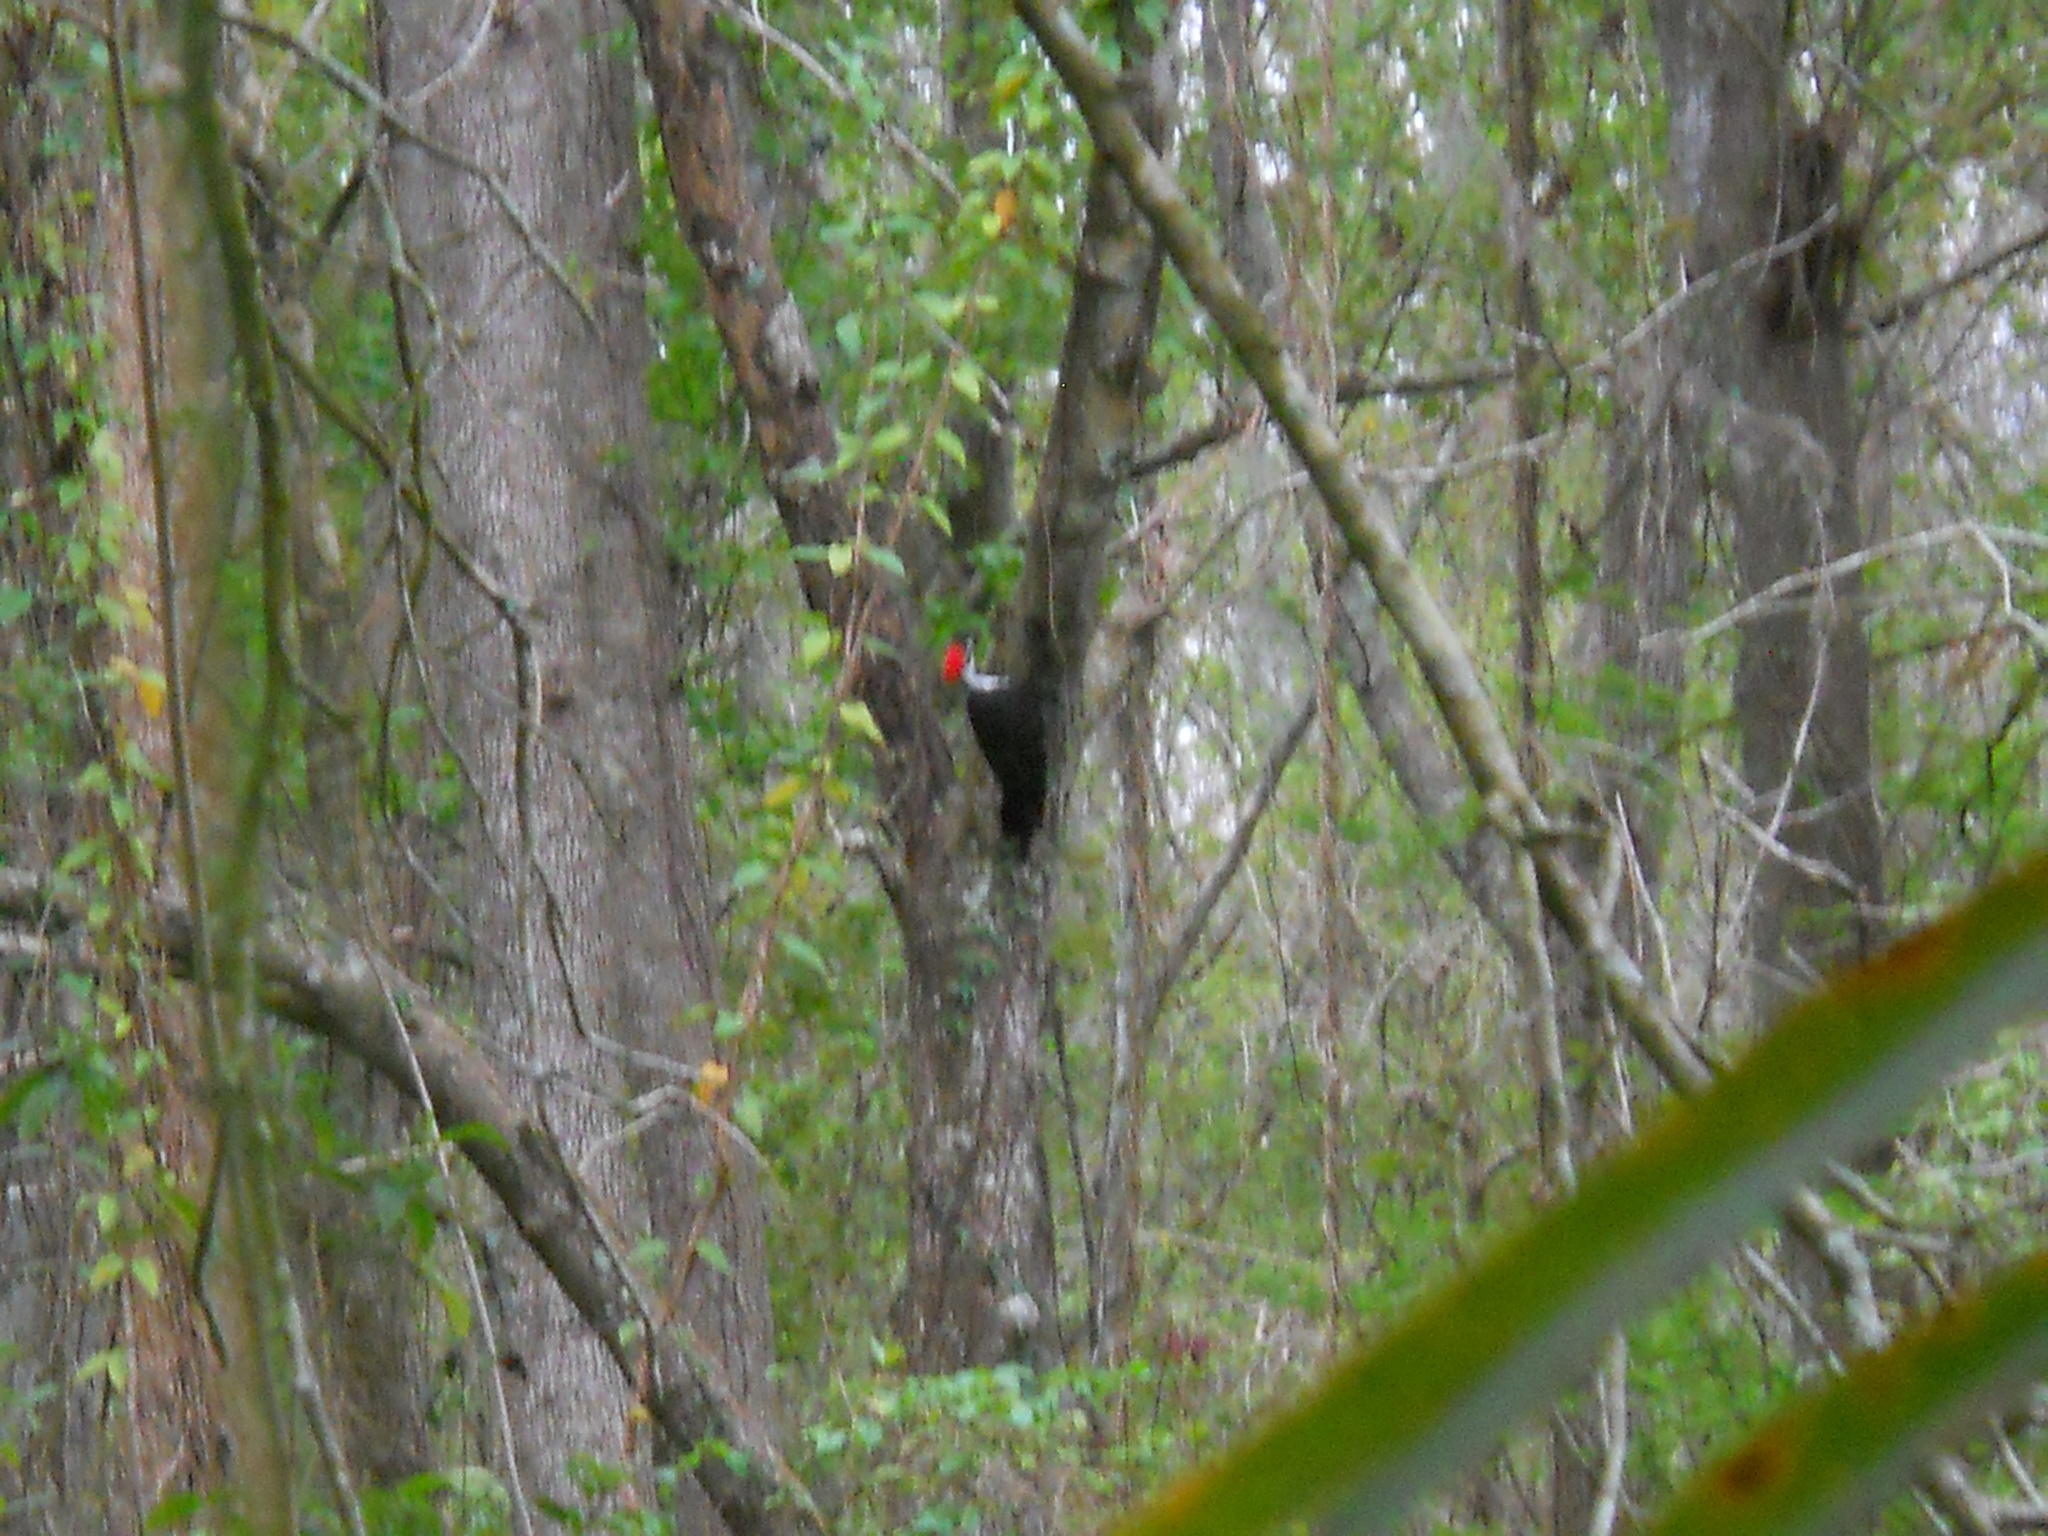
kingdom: Animalia
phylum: Chordata
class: Aves
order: Piciformes
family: Picidae
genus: Dryocopus
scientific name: Dryocopus pileatus
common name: Pileated woodpecker
